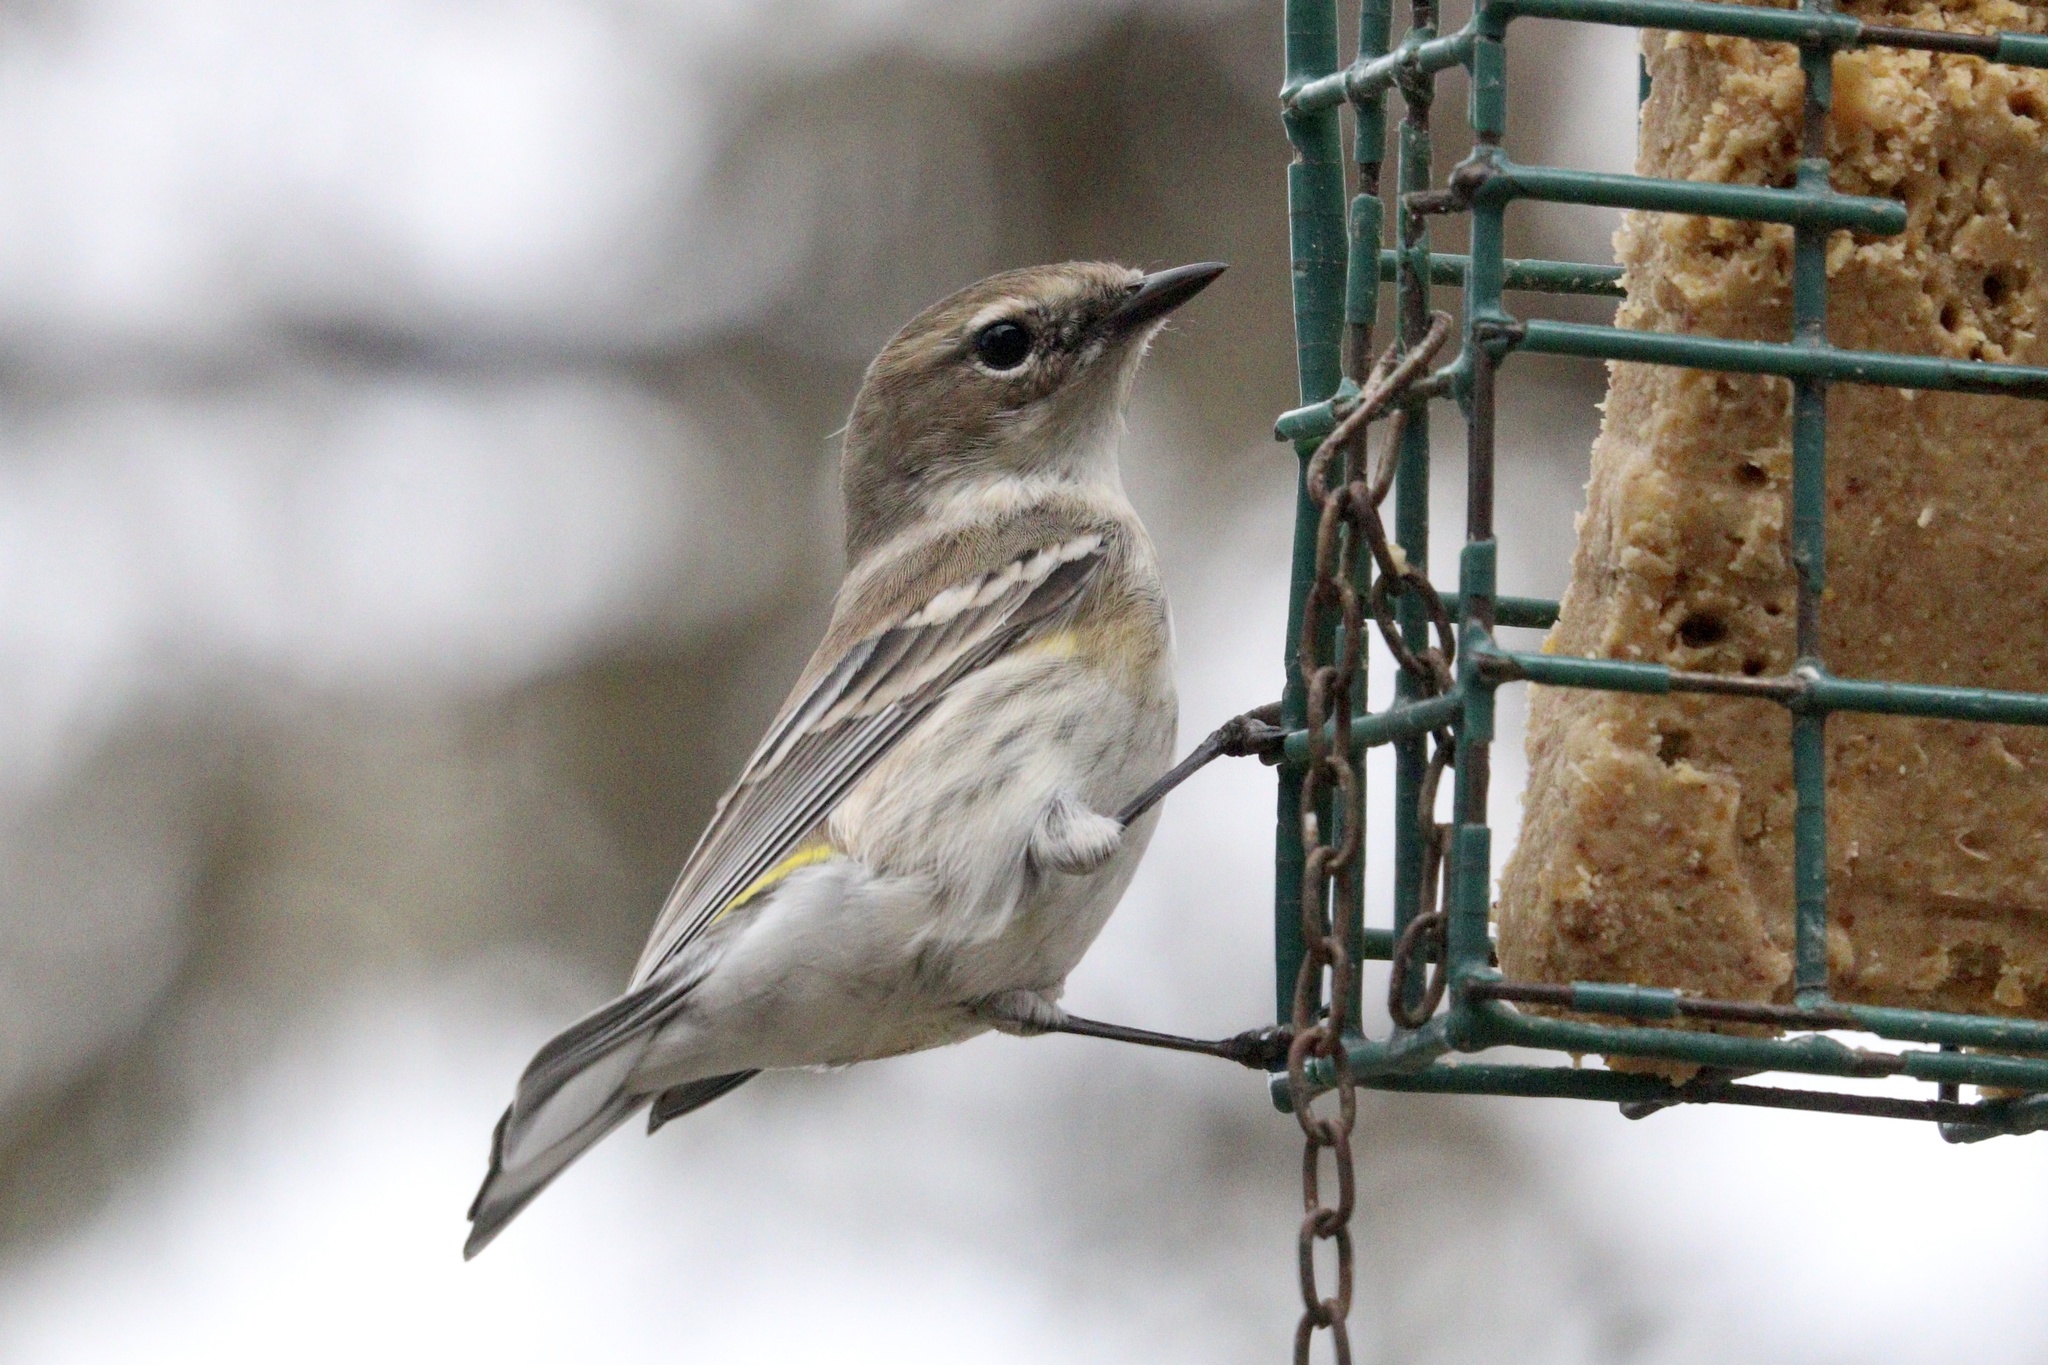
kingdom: Animalia
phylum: Chordata
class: Aves
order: Passeriformes
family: Parulidae
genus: Setophaga
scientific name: Setophaga coronata
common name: Myrtle warbler
